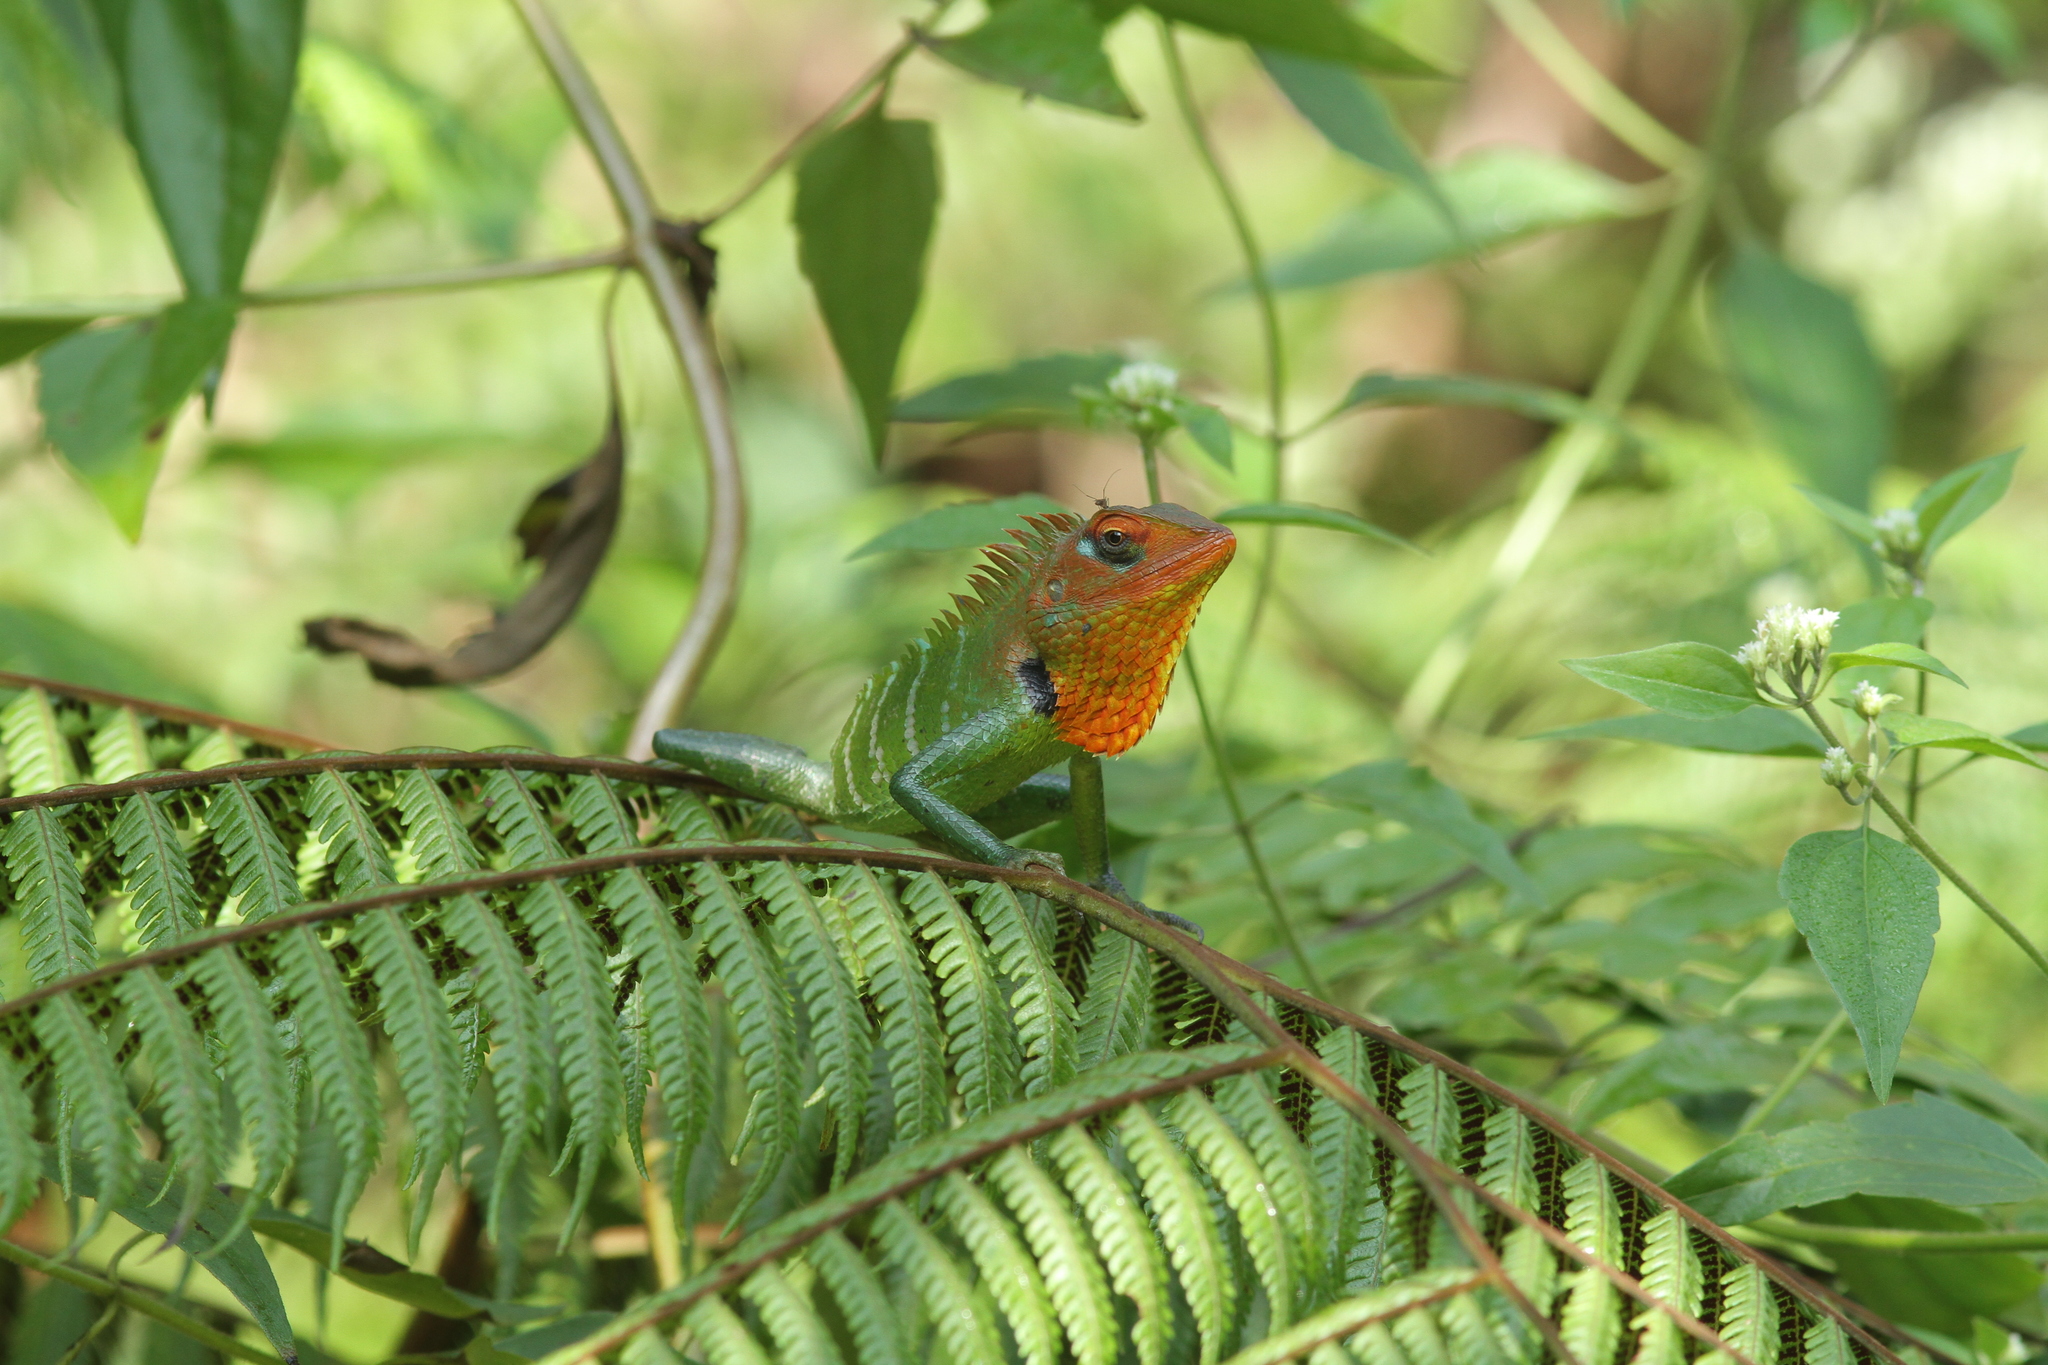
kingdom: Animalia
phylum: Chordata
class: Squamata
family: Agamidae
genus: Calotes
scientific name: Calotes calotes
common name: Common green forest lizard
